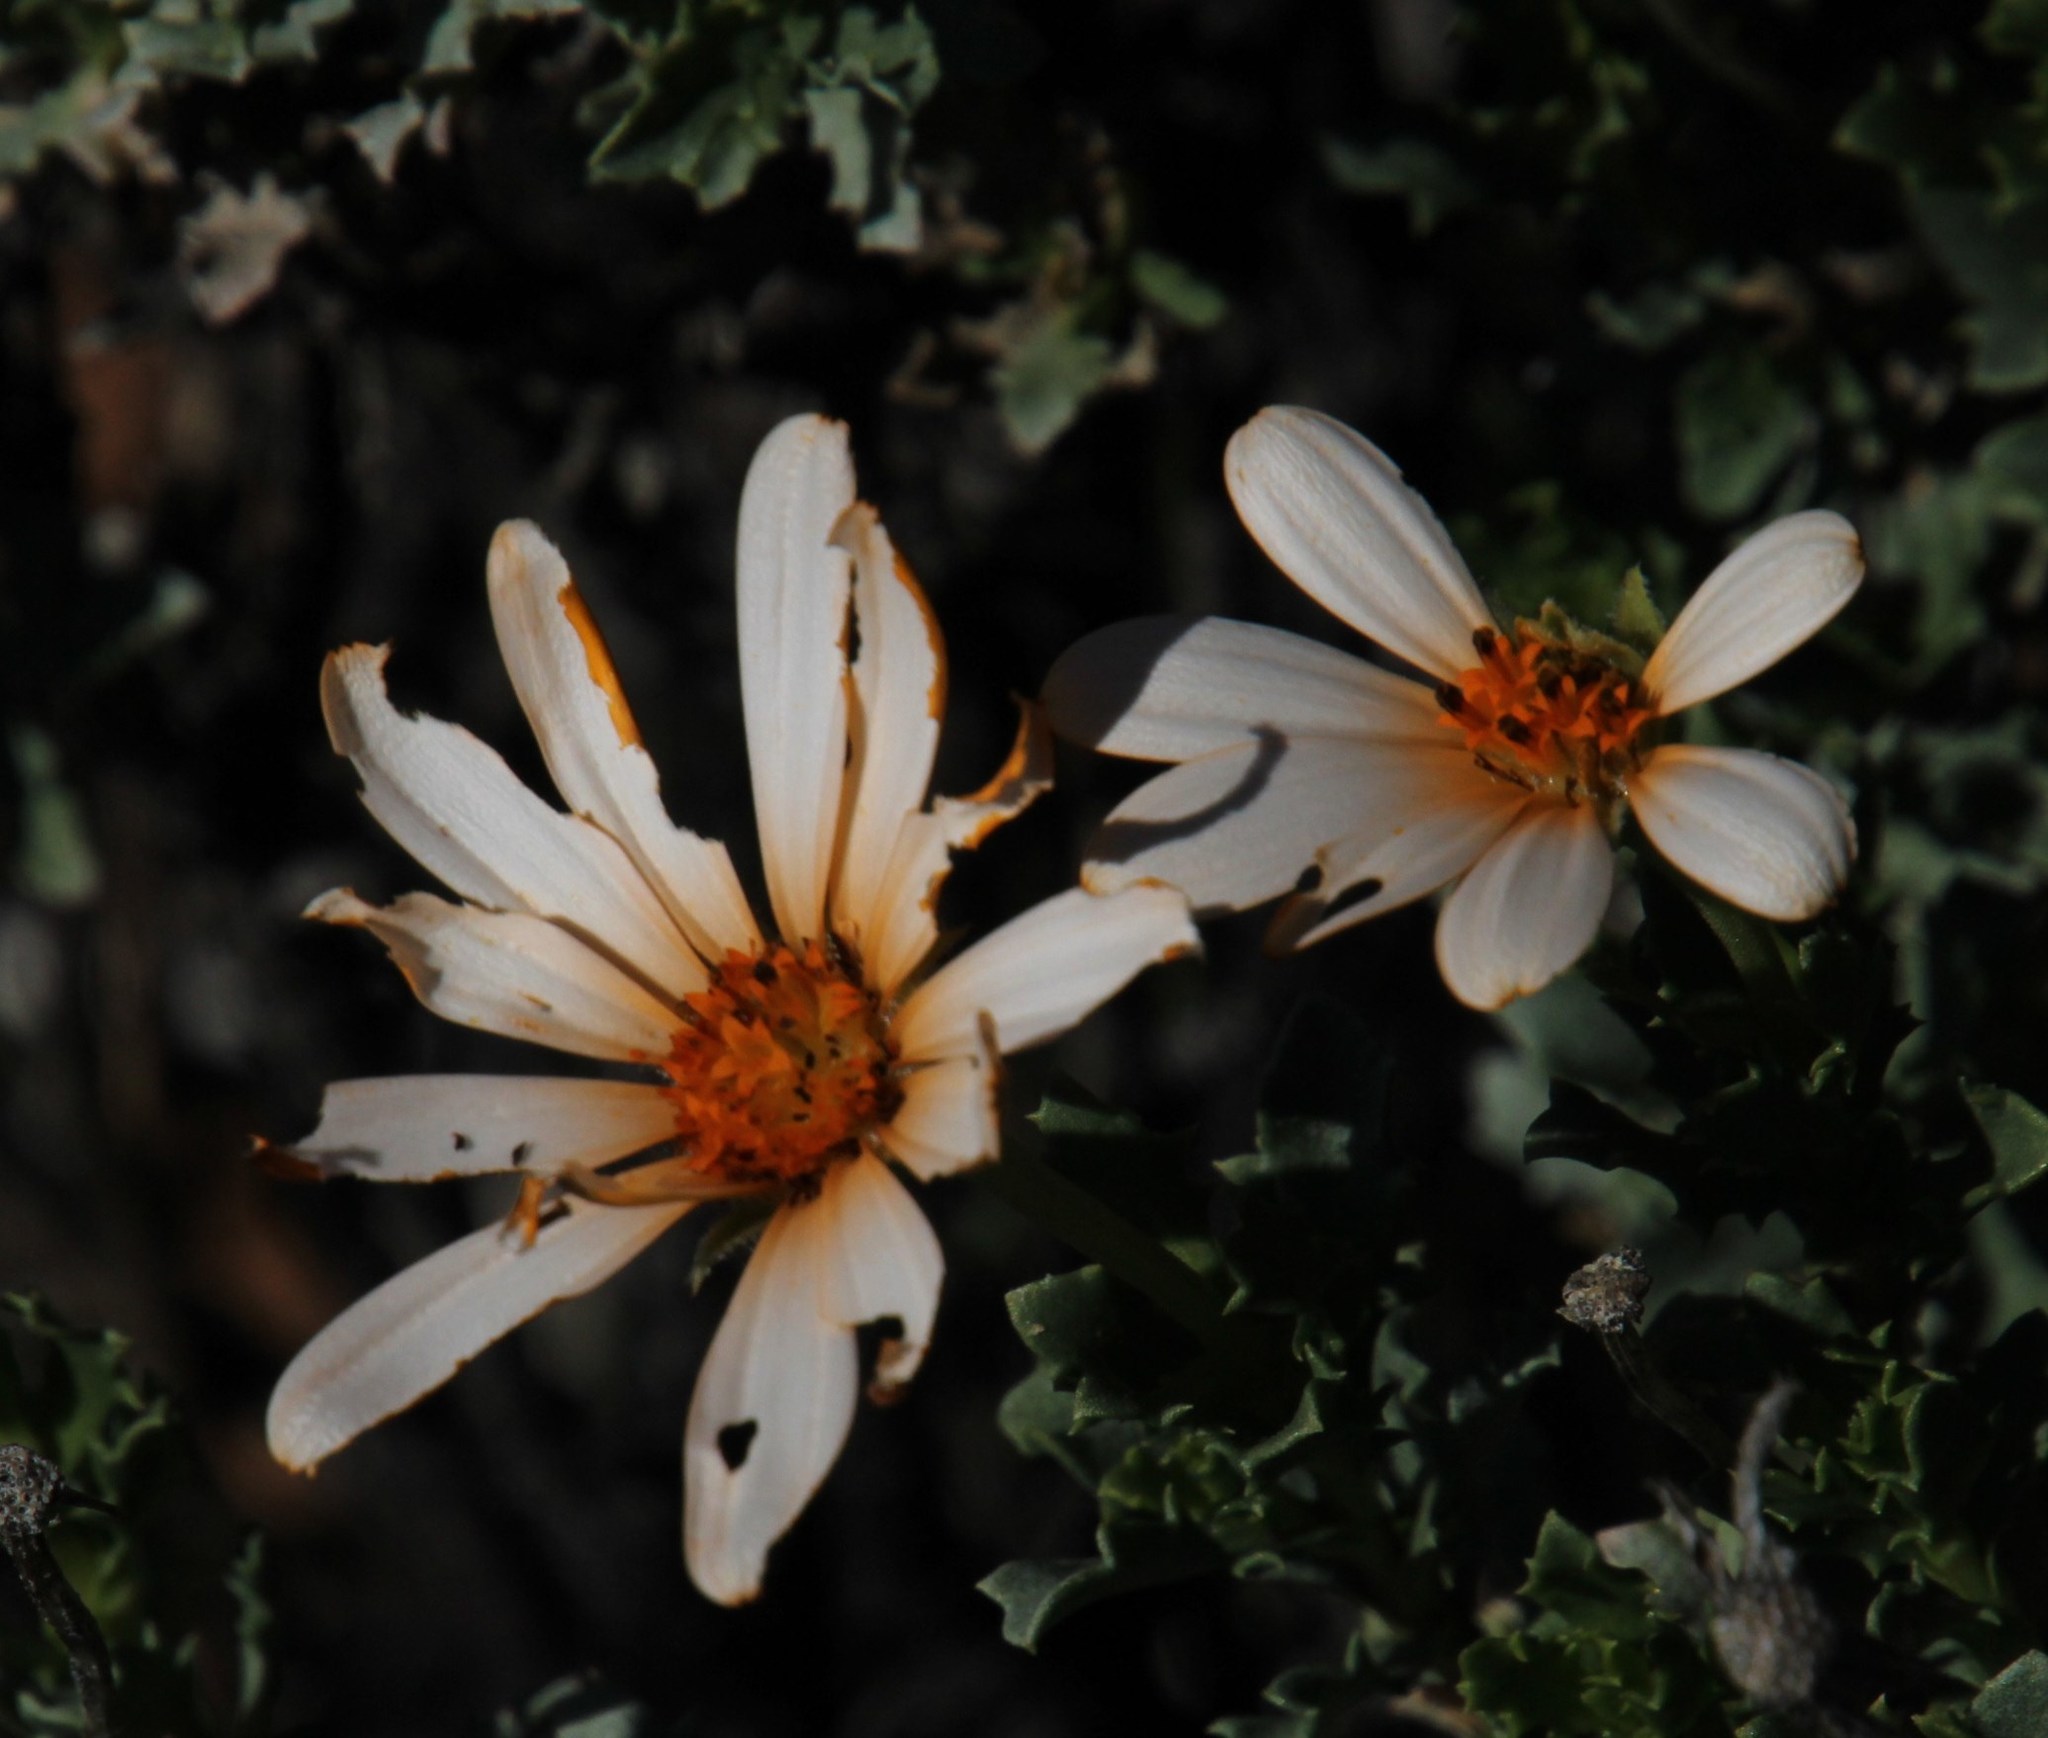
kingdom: Plantae
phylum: Tracheophyta
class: Magnoliopsida
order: Asterales
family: Asteraceae
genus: Dimorphotheca
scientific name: Dimorphotheca cuneata
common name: Daisy
